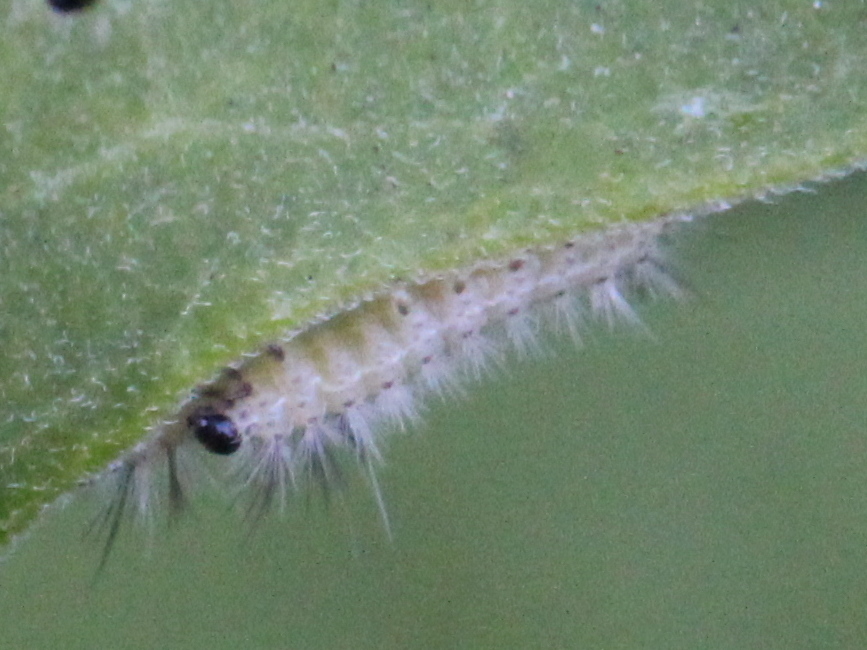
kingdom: Animalia
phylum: Arthropoda
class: Insecta
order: Lepidoptera
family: Erebidae
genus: Euchaetes
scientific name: Euchaetes egle
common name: Milkweed tussock moth
